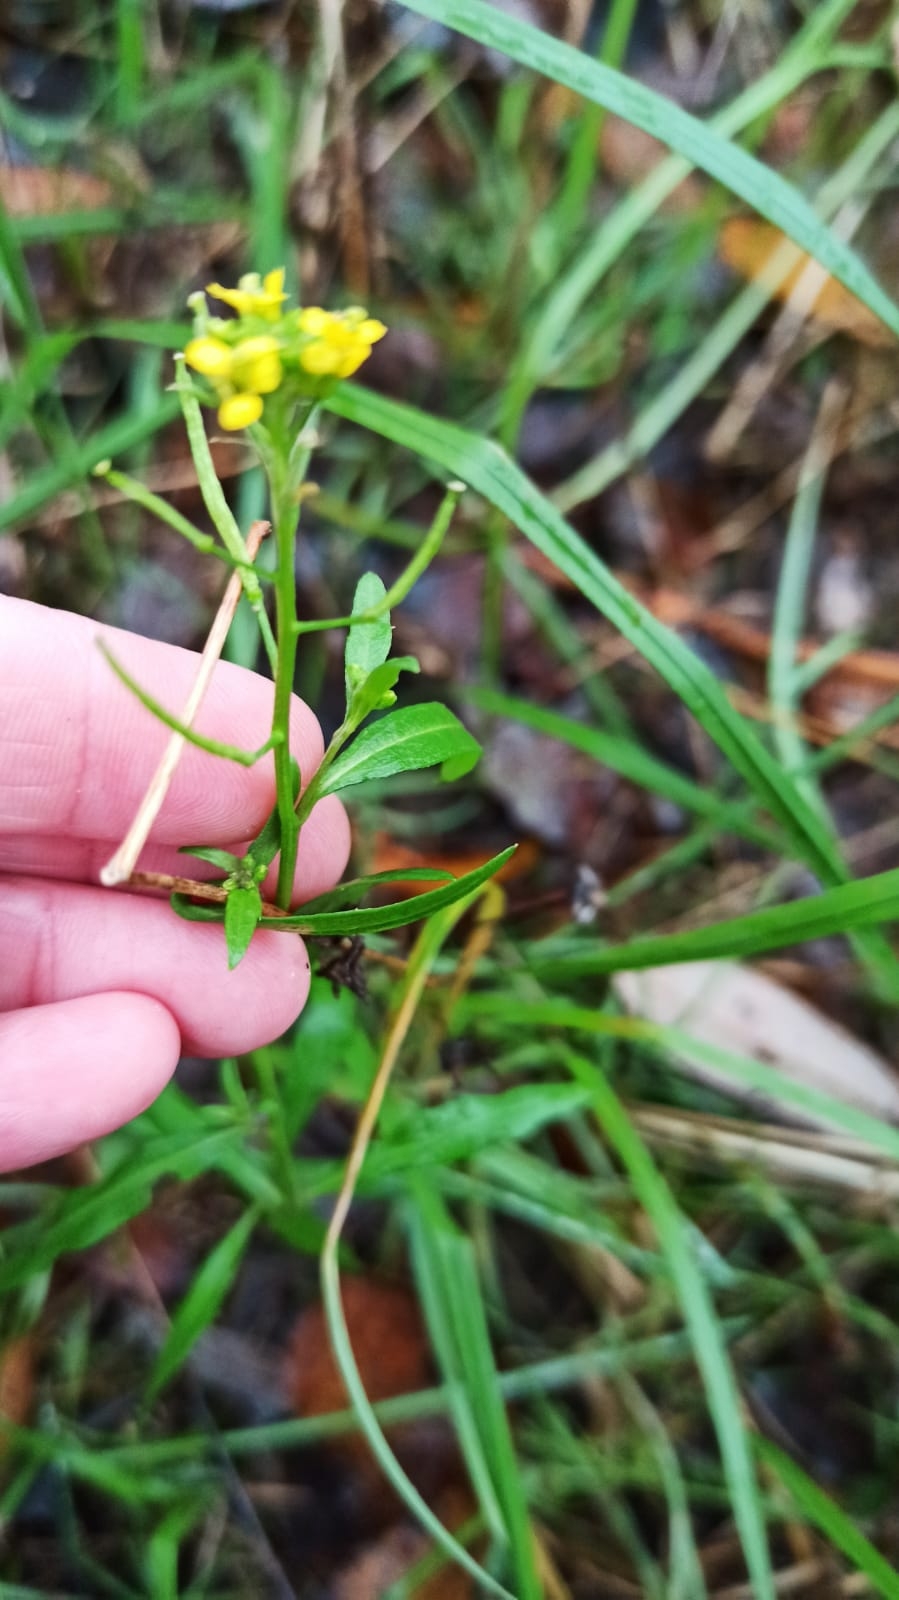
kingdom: Plantae
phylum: Tracheophyta
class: Magnoliopsida
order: Brassicales
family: Brassicaceae
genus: Erysimum
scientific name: Erysimum cheiranthoides
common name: Treacle mustard
